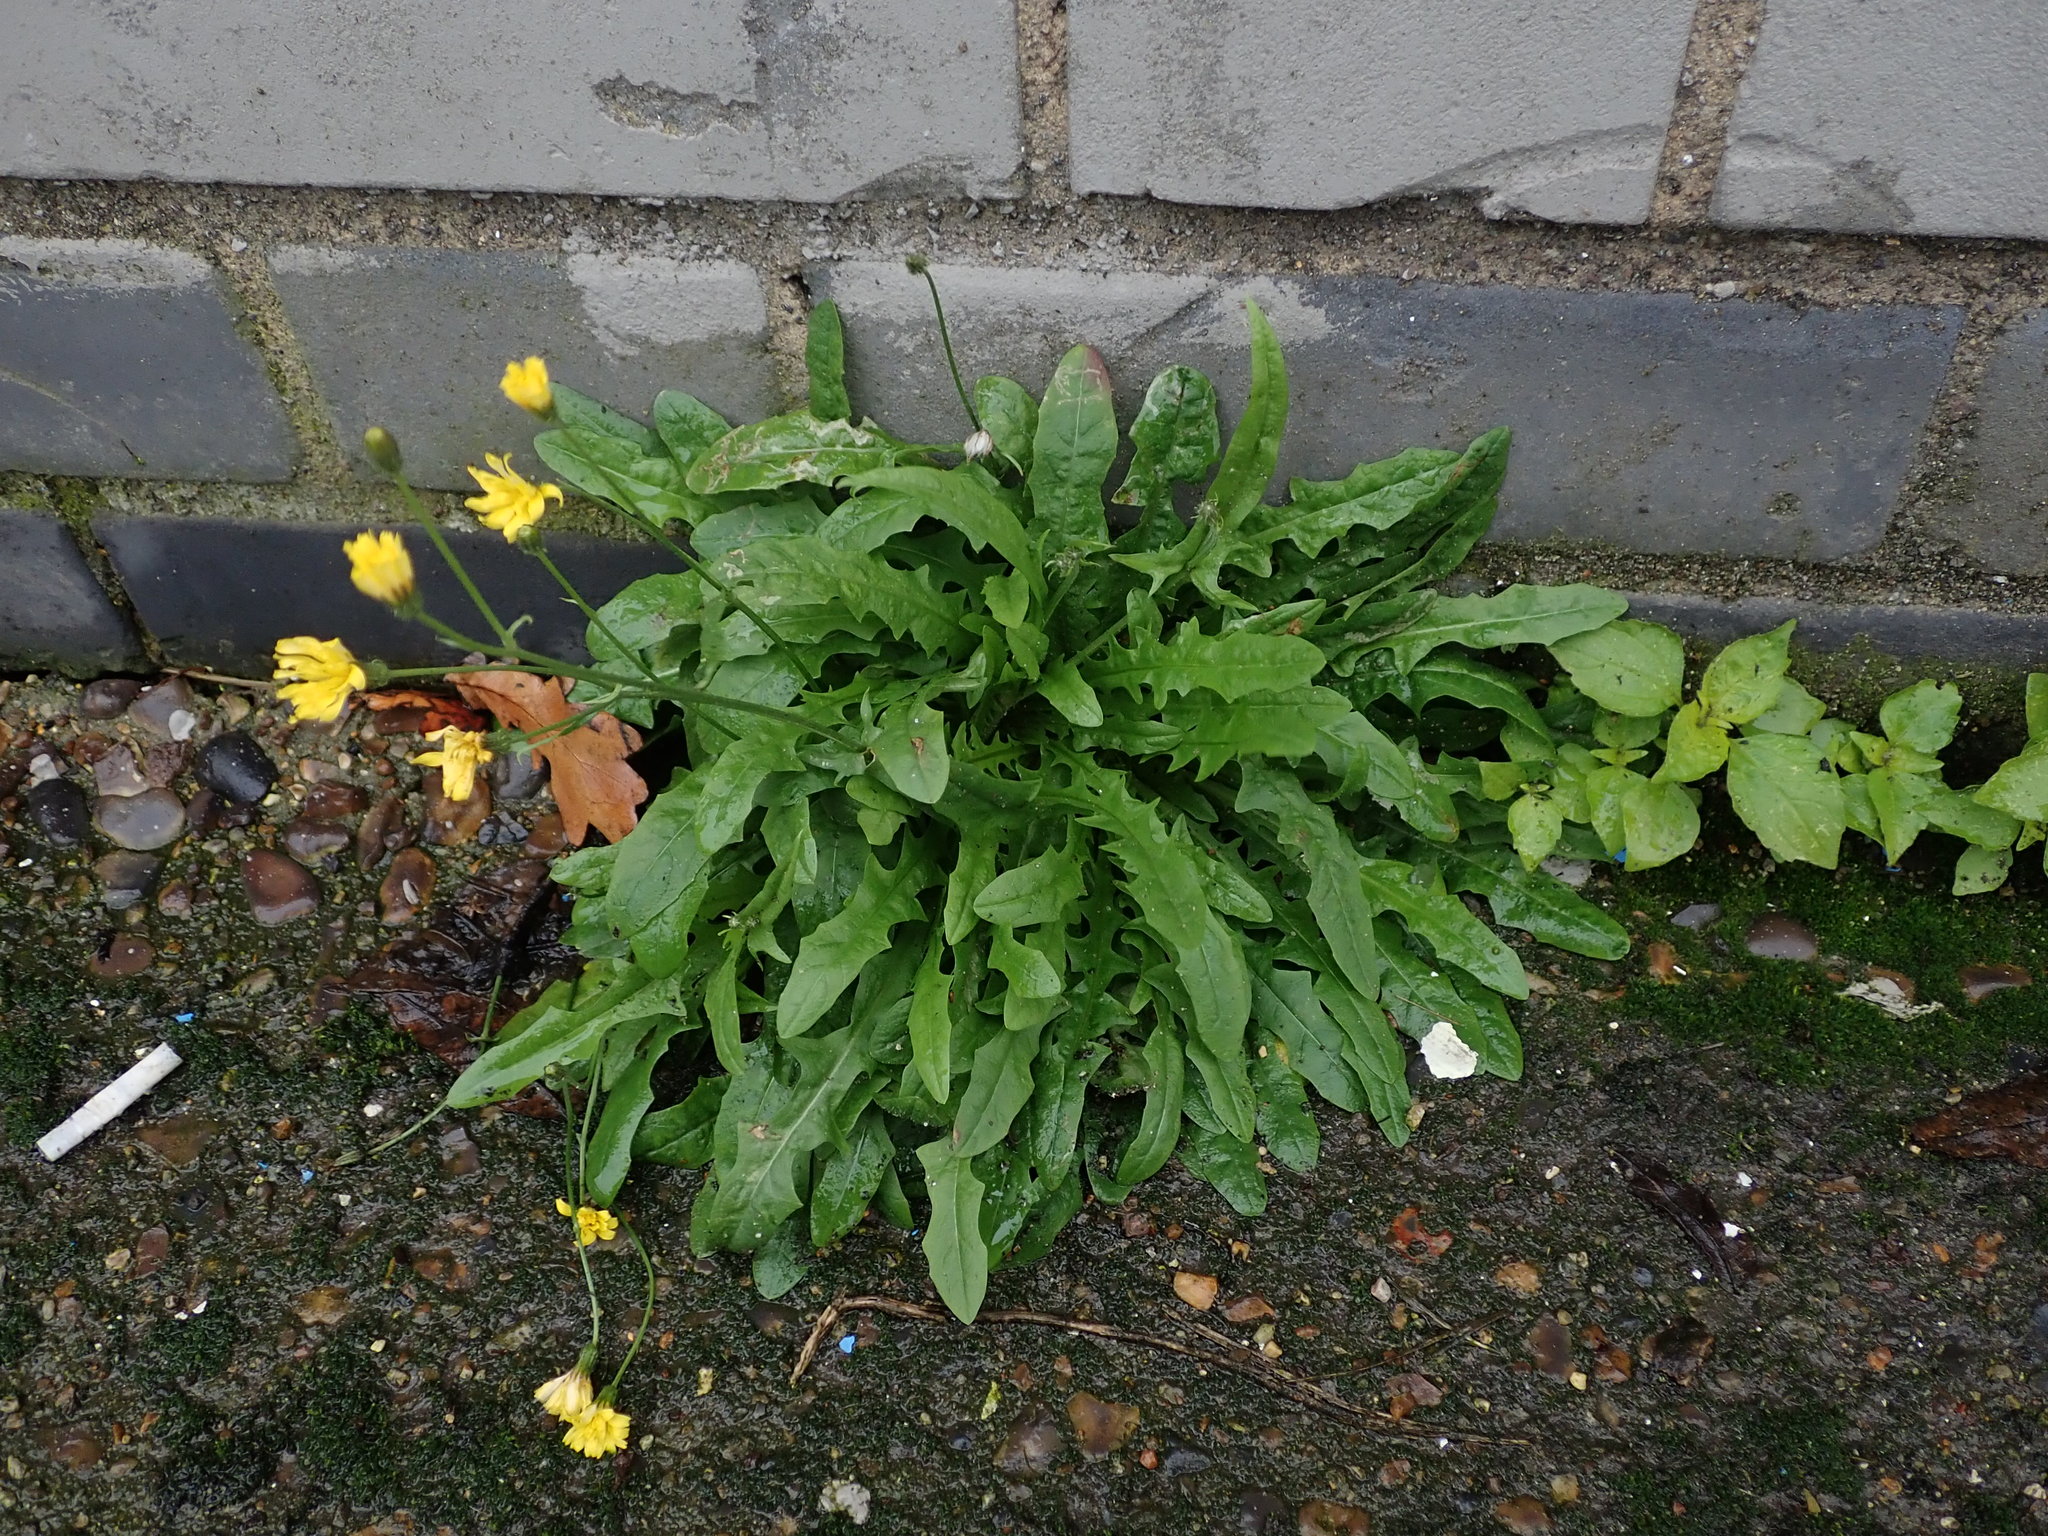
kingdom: Plantae
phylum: Tracheophyta
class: Magnoliopsida
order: Asterales
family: Asteraceae
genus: Crepis
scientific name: Crepis capillaris
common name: Smooth hawksbeard
